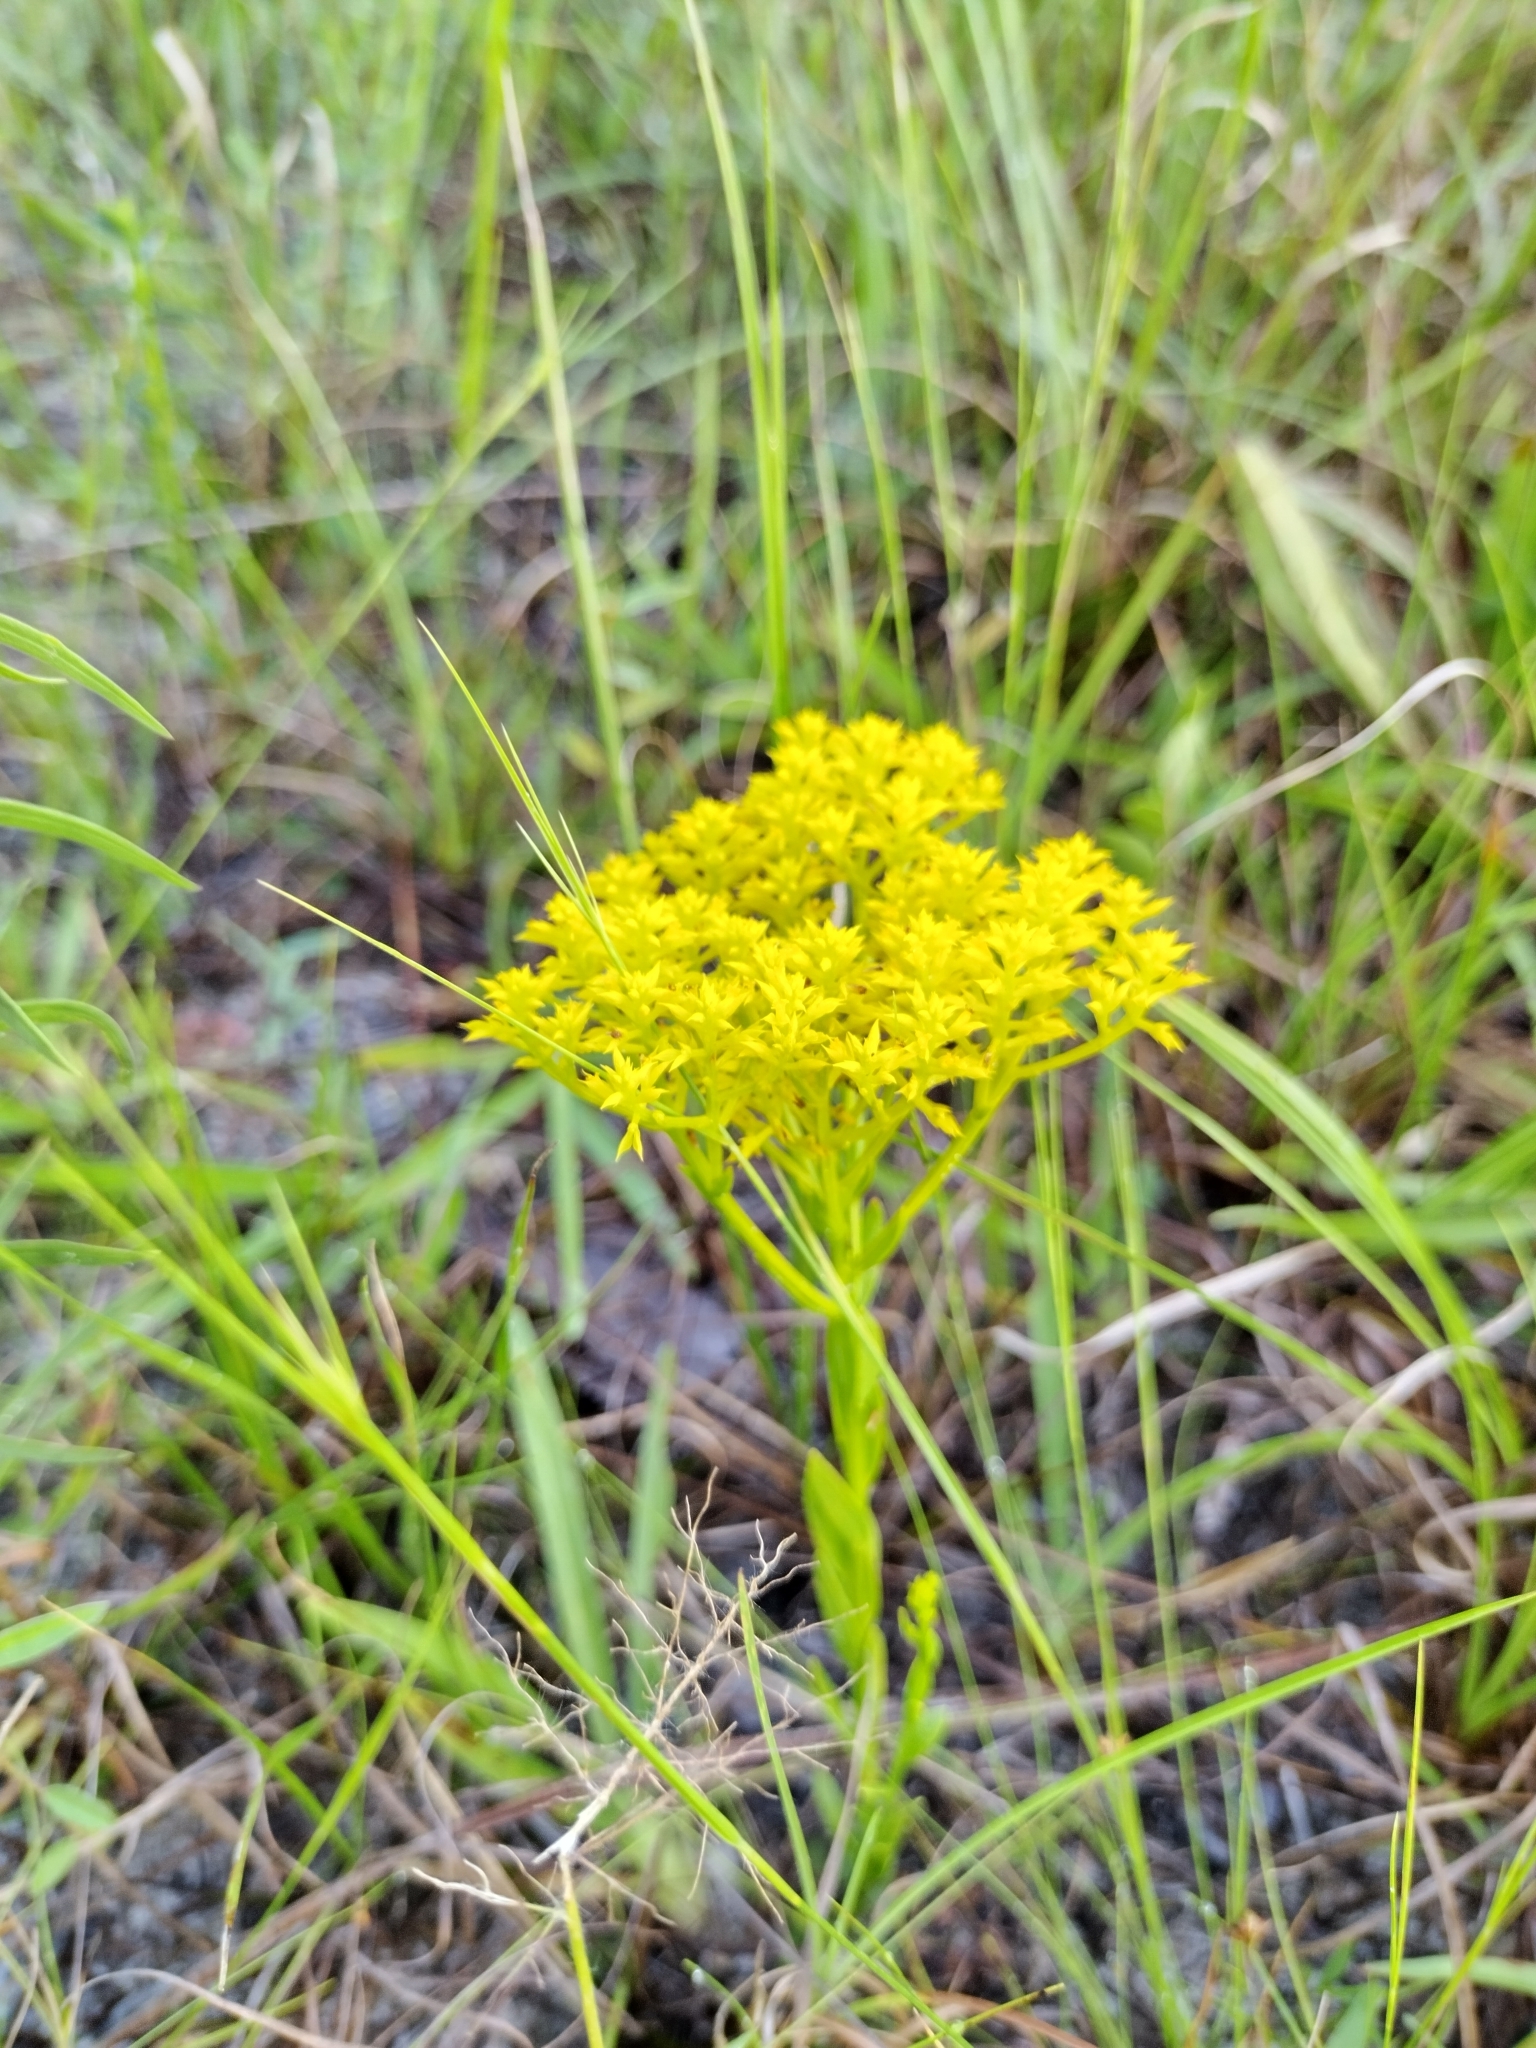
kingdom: Plantae
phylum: Tracheophyta
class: Magnoliopsida
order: Fabales
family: Polygalaceae
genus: Polygala
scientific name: Polygala ramosa
